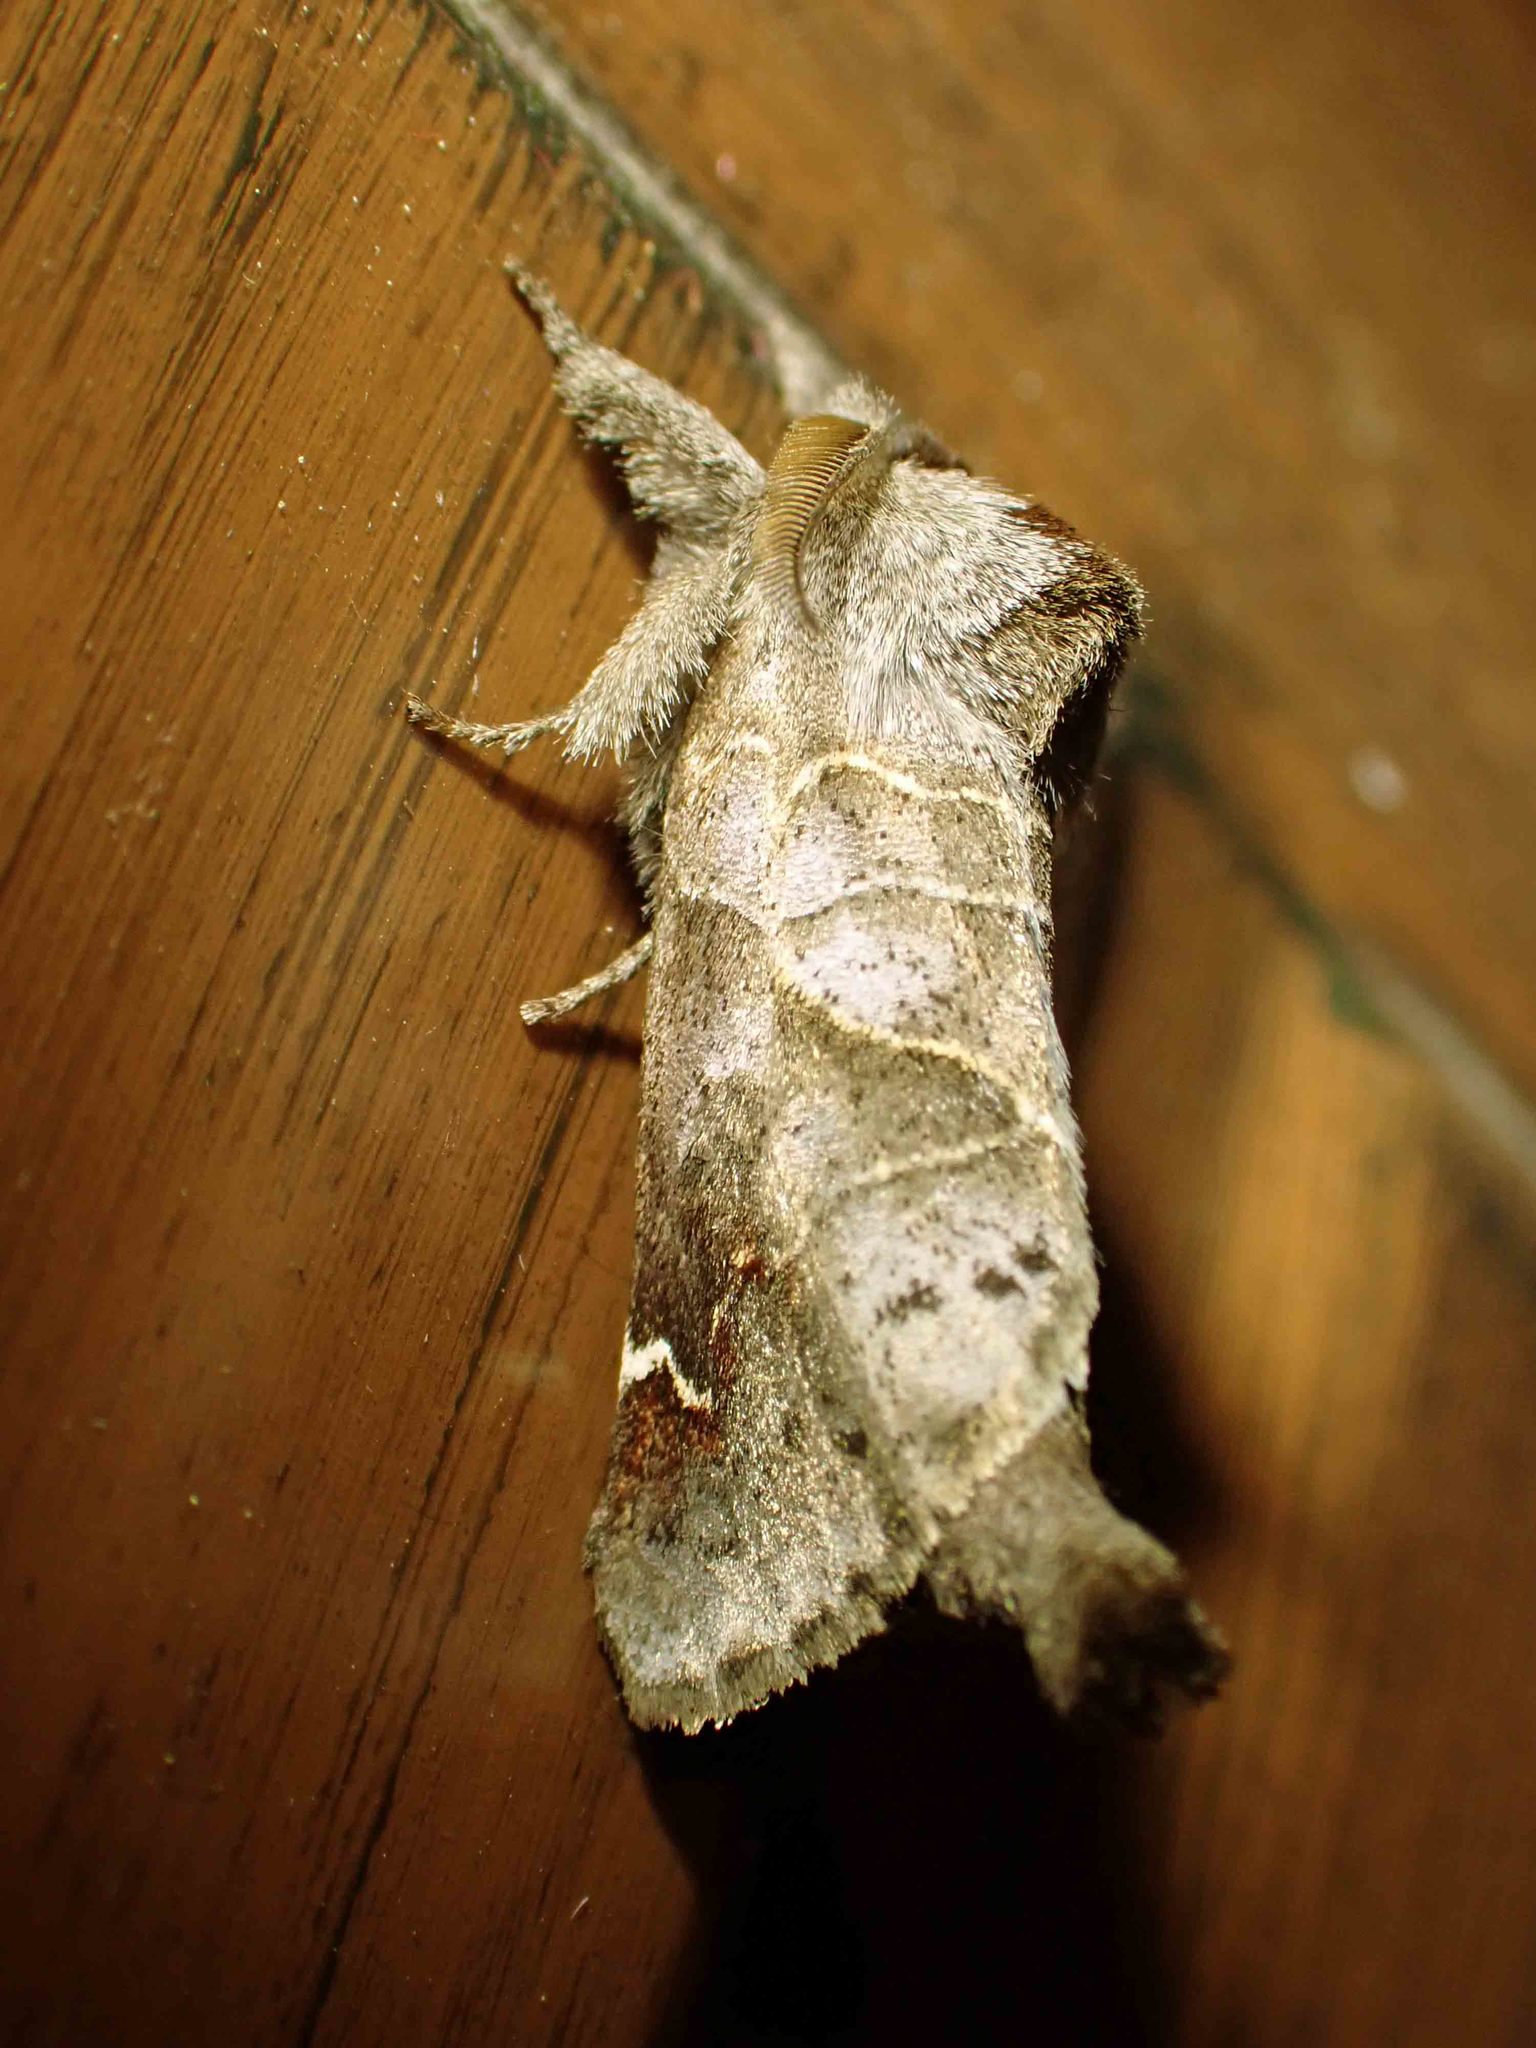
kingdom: Animalia
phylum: Arthropoda
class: Insecta
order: Lepidoptera
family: Notodontidae
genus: Clostera
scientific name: Clostera apicalis
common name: Apical prominent
